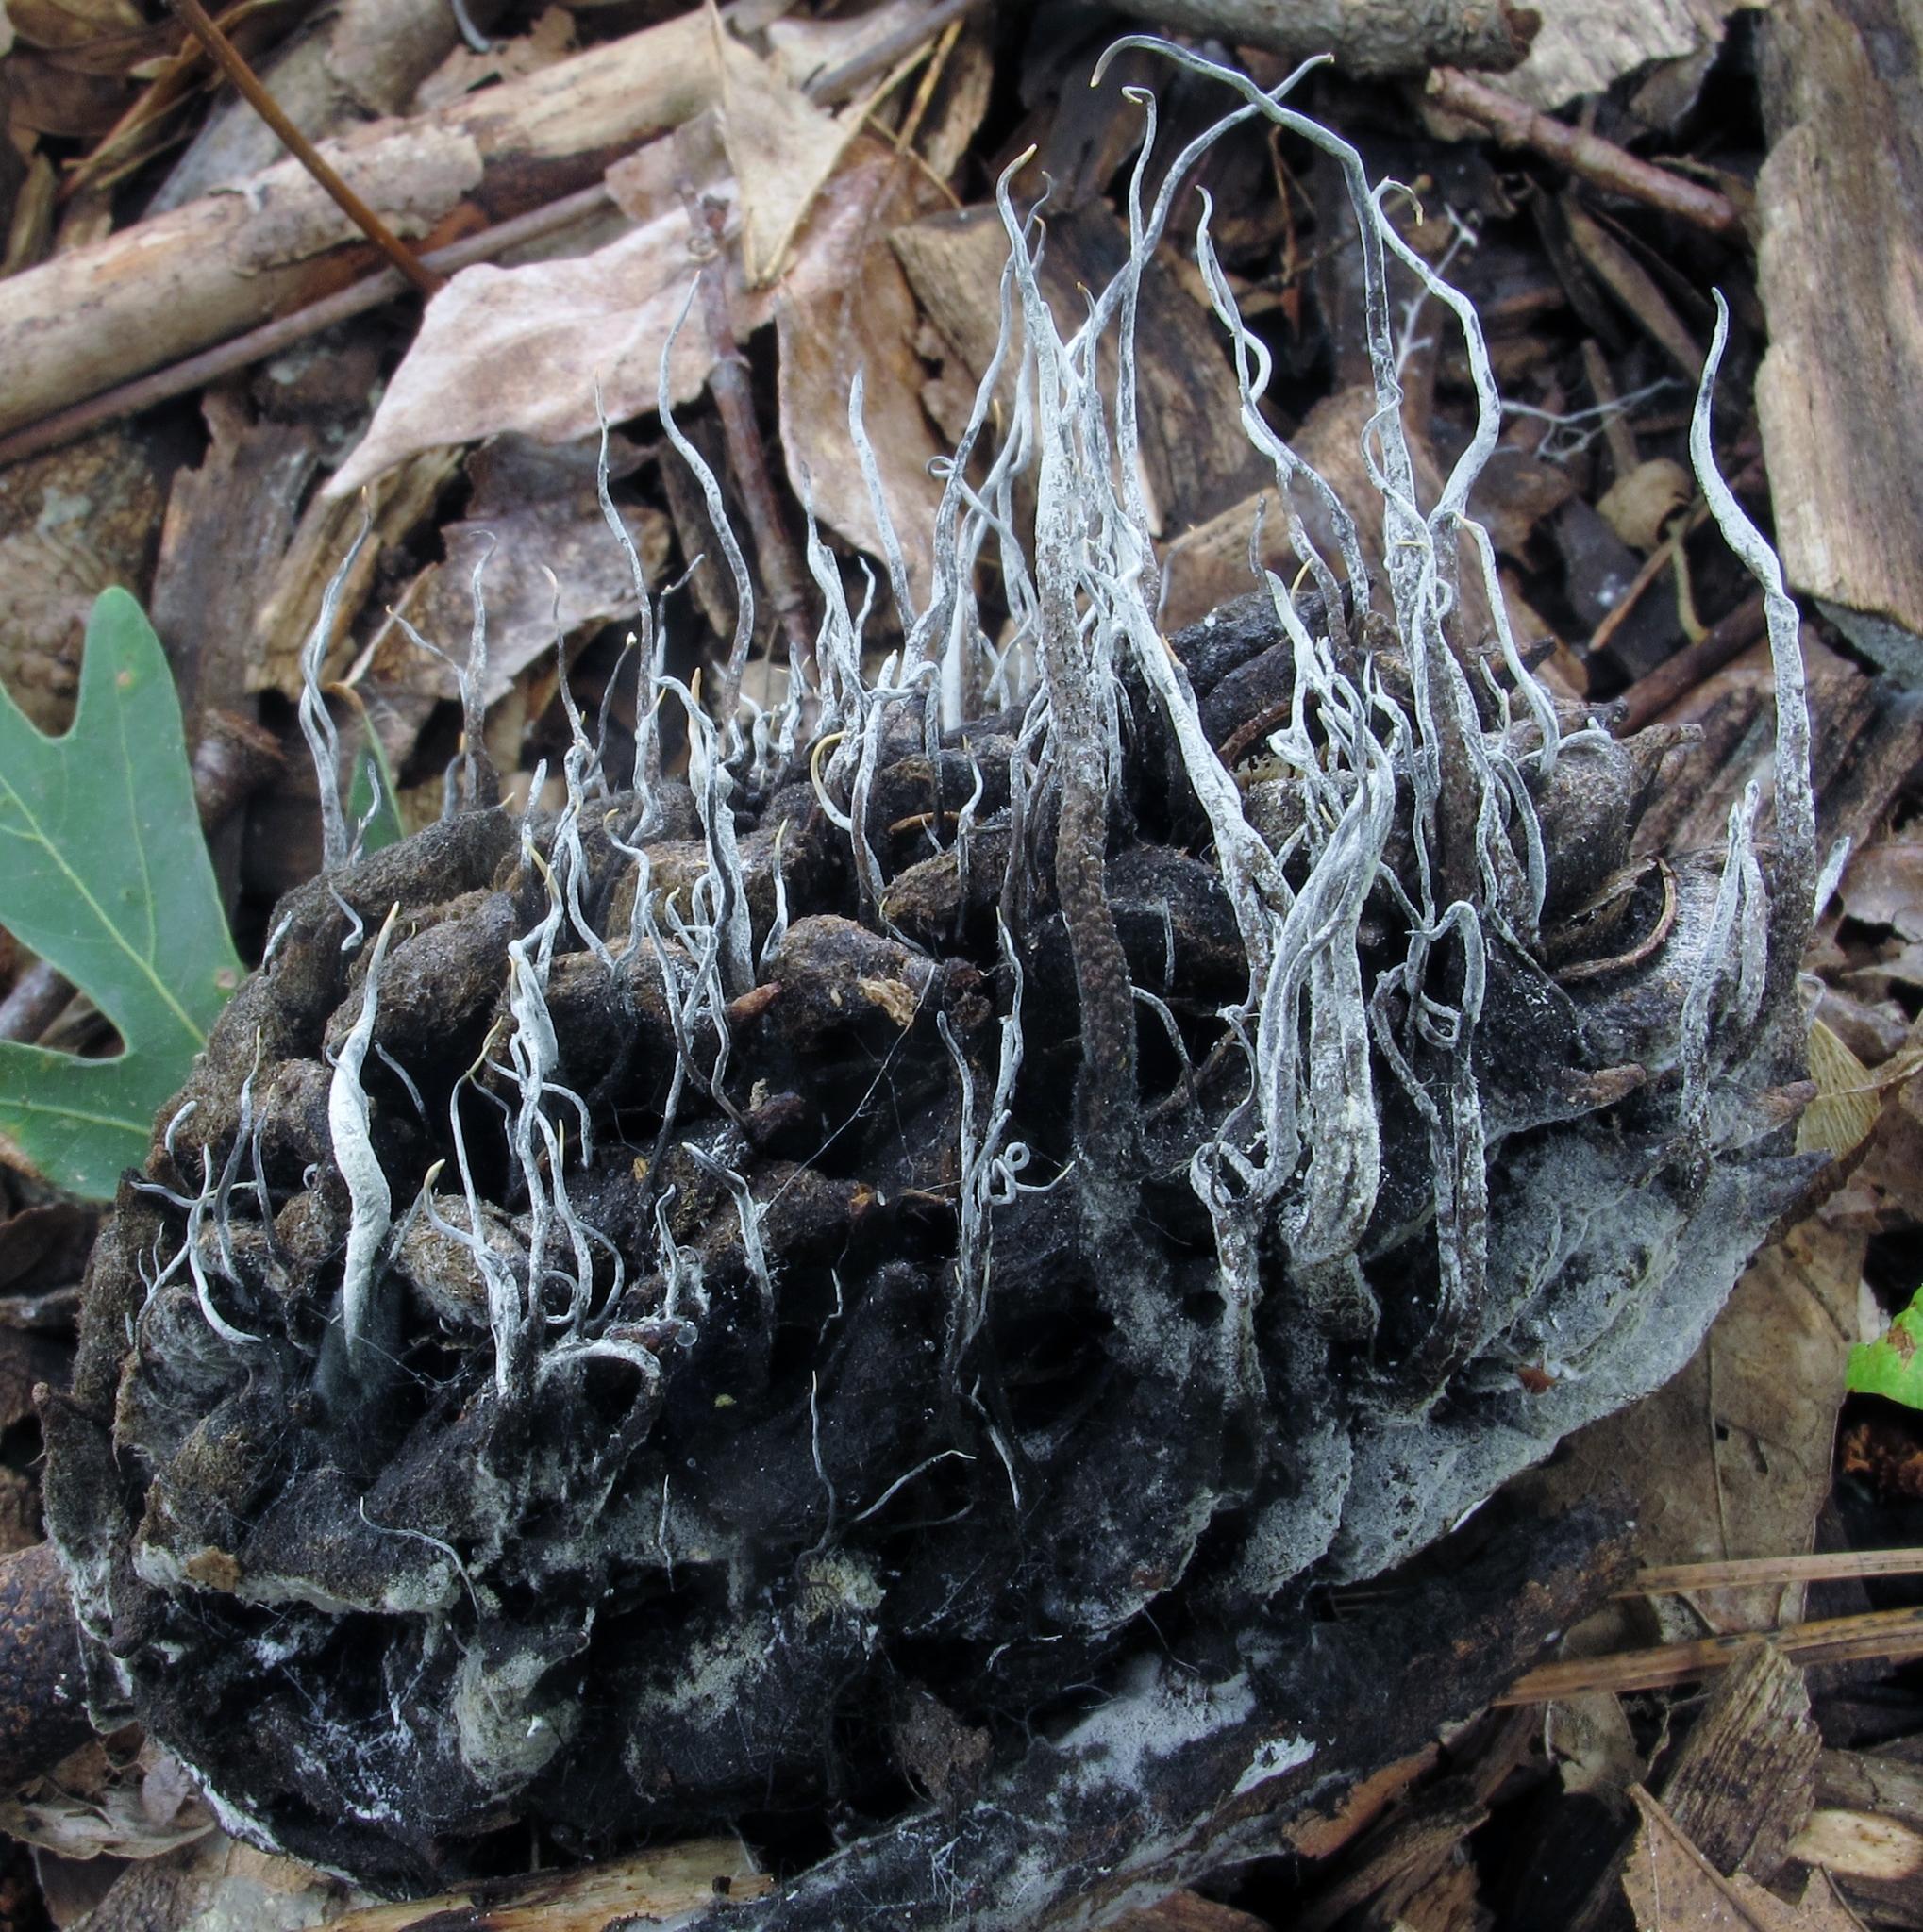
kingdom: Fungi
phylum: Ascomycota
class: Sordariomycetes
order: Xylariales
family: Xylariaceae
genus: Xylaria
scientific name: Xylaria magnoliae
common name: Magnolia-cone xylaria
